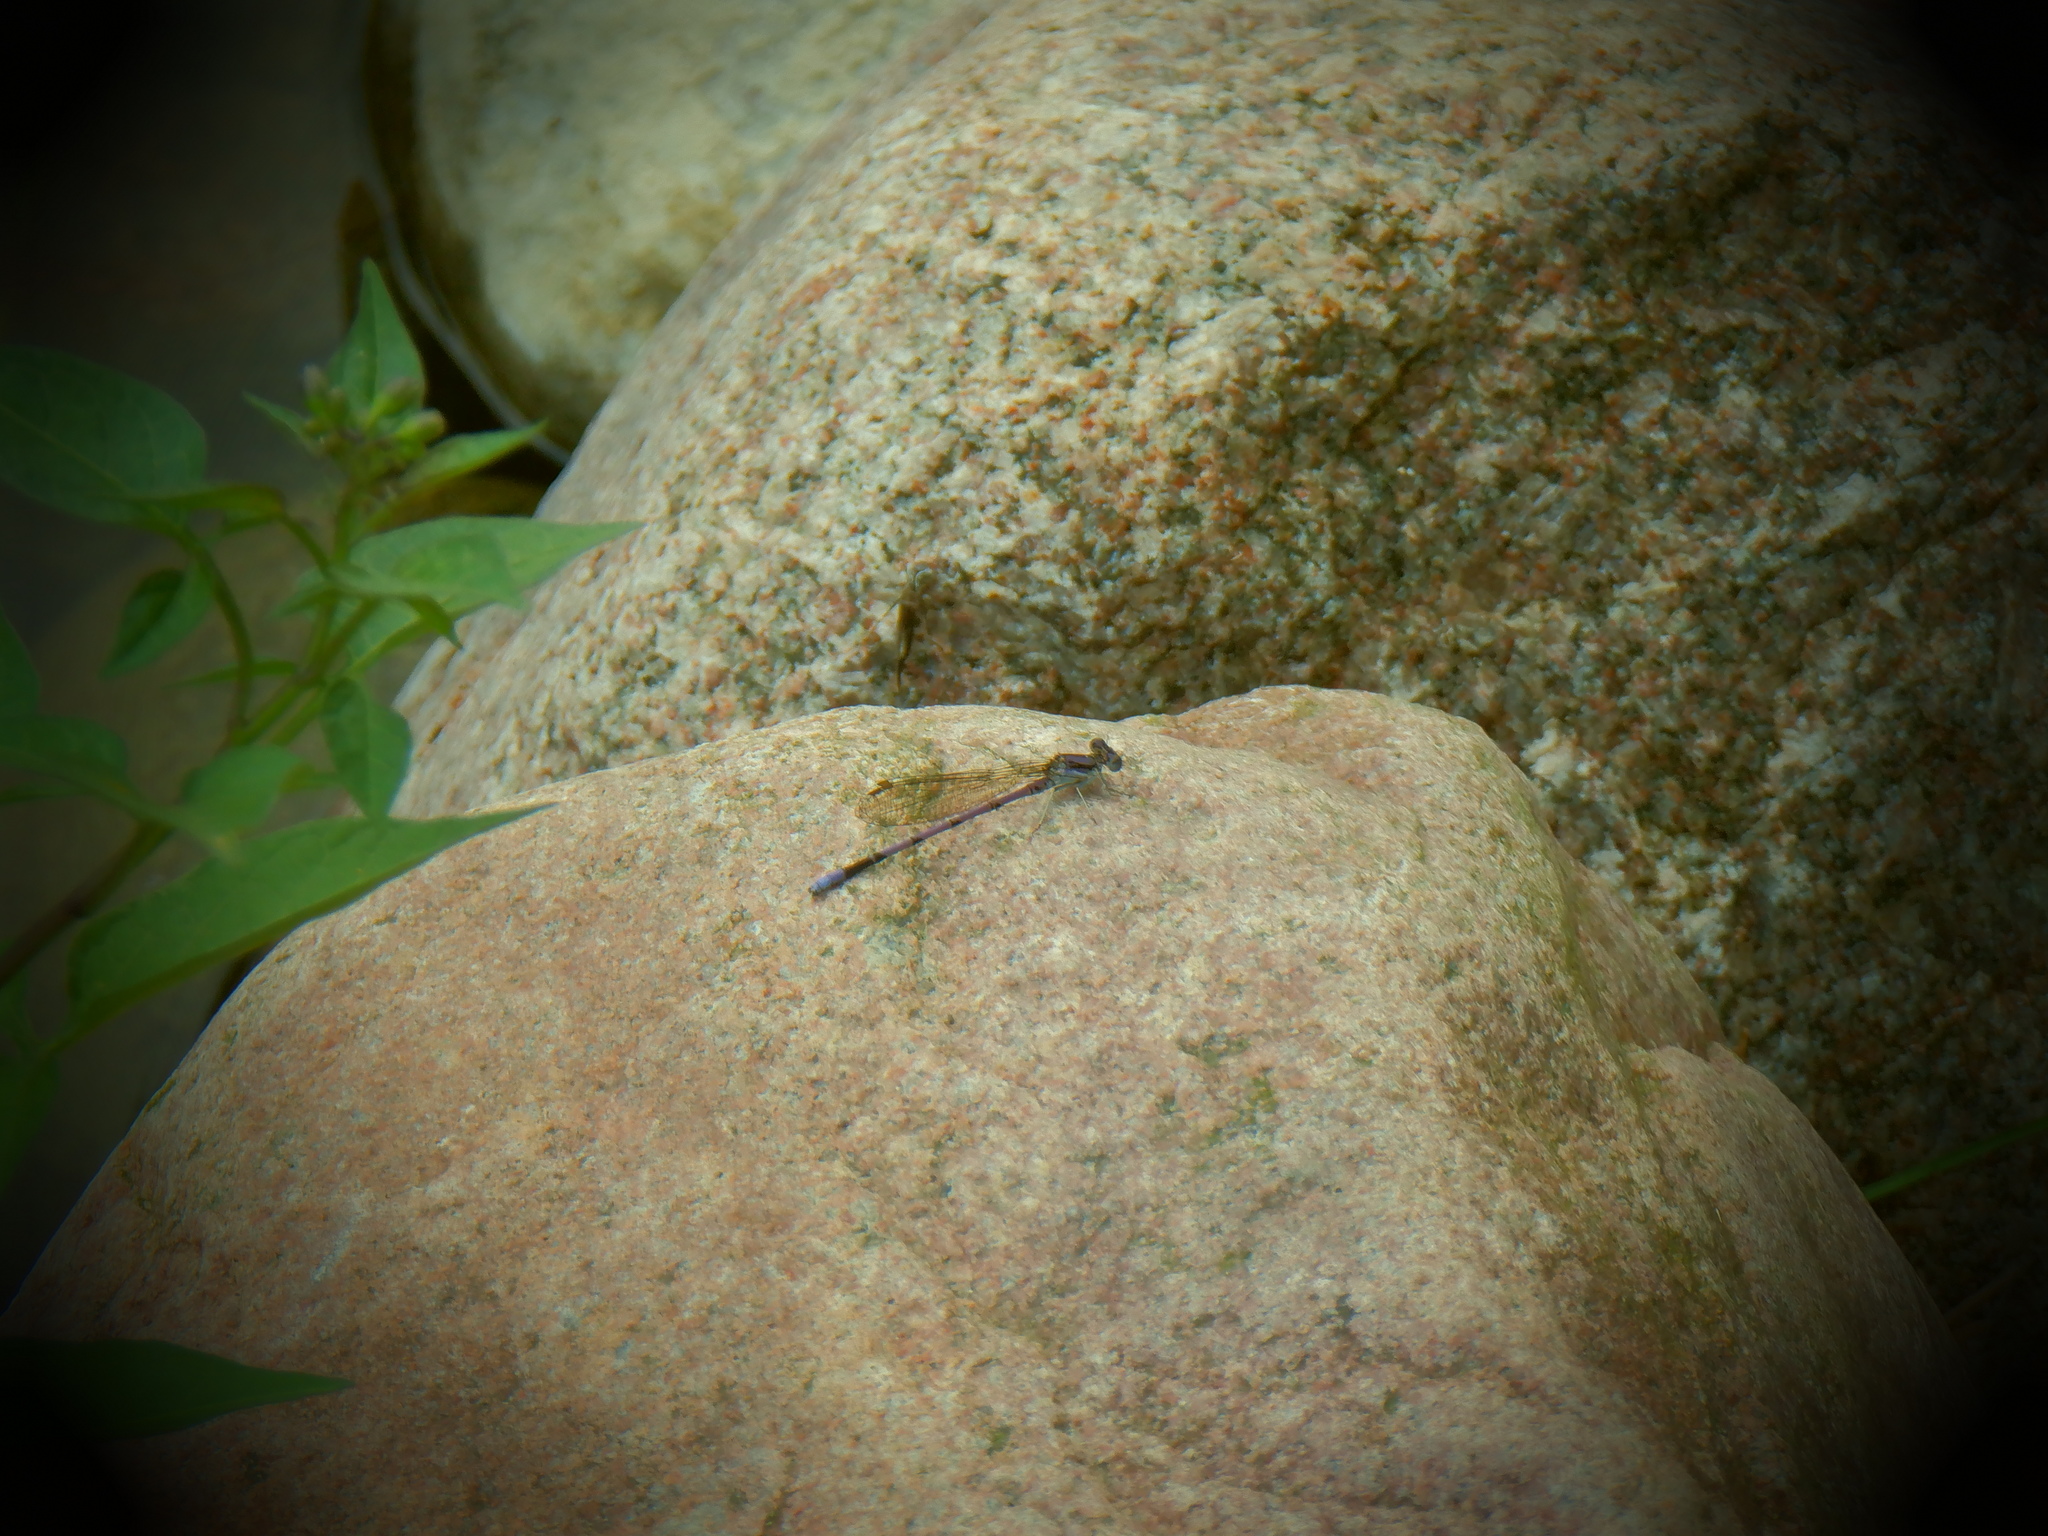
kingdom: Animalia
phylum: Arthropoda
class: Insecta
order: Odonata
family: Coenagrionidae
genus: Argia
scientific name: Argia fumipennis
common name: Variable dancer
